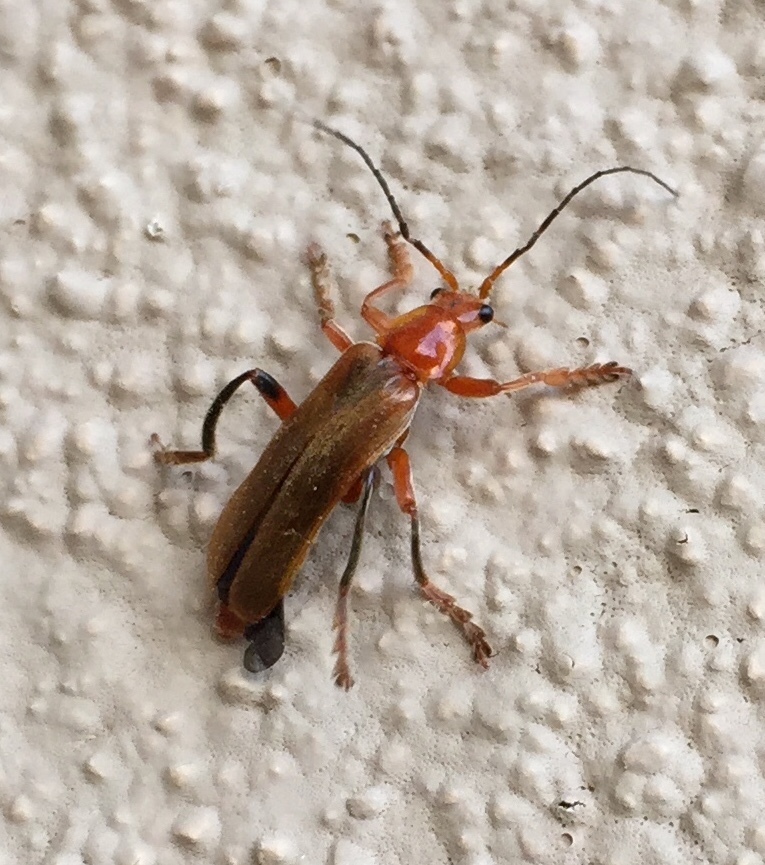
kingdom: Animalia
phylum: Arthropoda
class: Insecta
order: Coleoptera
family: Cantharidae
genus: Cantharis
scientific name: Cantharis livida
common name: Livid soldier beetle
